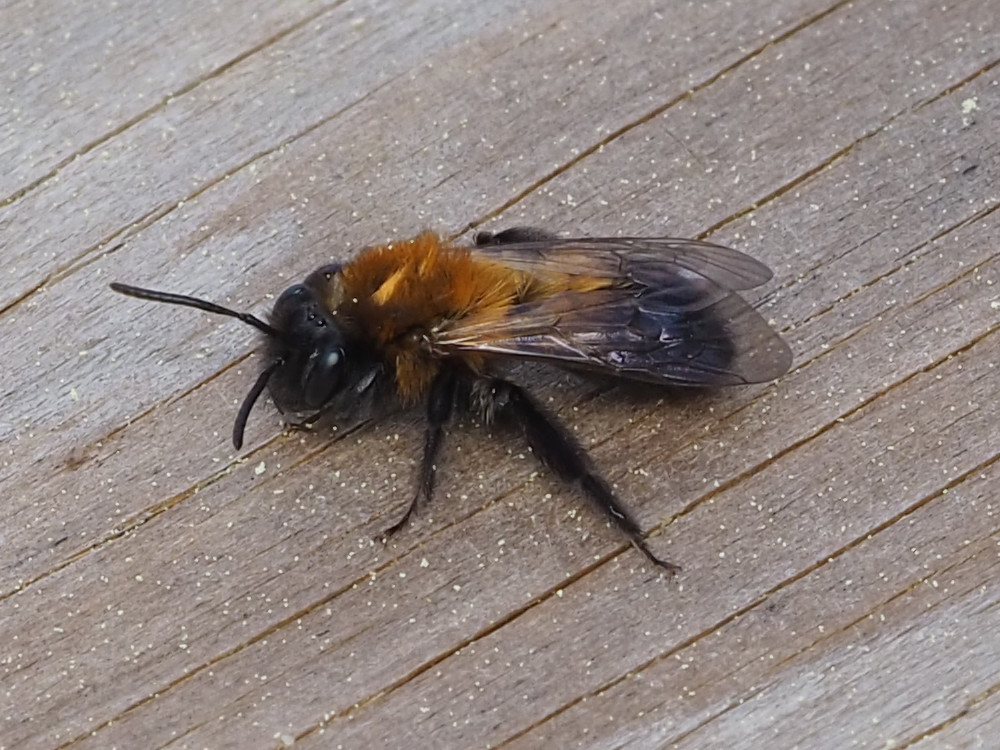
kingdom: Animalia
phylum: Arthropoda
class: Insecta
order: Hymenoptera
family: Andrenidae
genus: Andrena
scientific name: Andrena milwaukeensis
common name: Milwaukee mining bee
